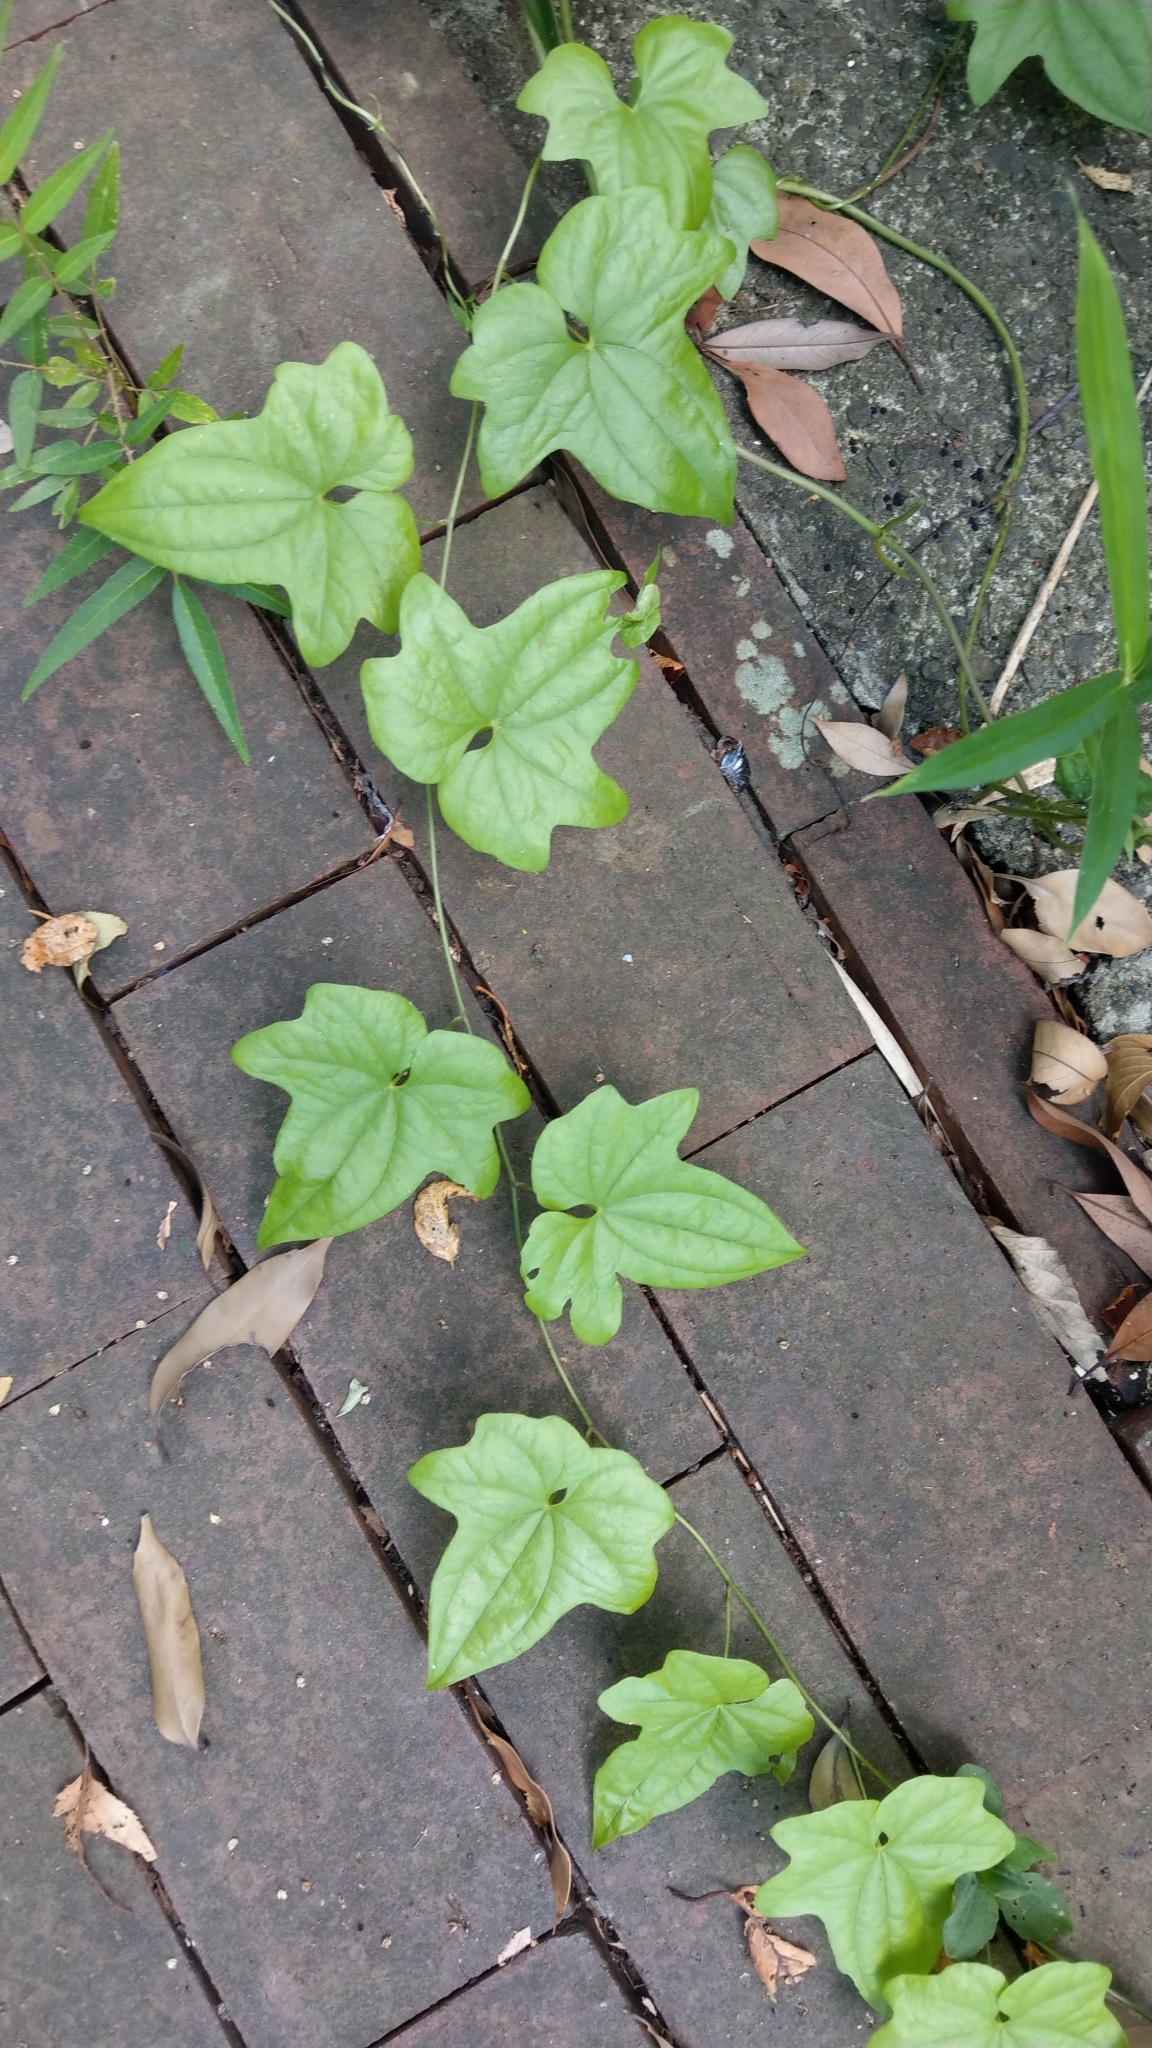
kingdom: Plantae
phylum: Tracheophyta
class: Liliopsida
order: Dioscoreales
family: Dioscoreaceae
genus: Dioscorea
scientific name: Dioscorea nipponica
